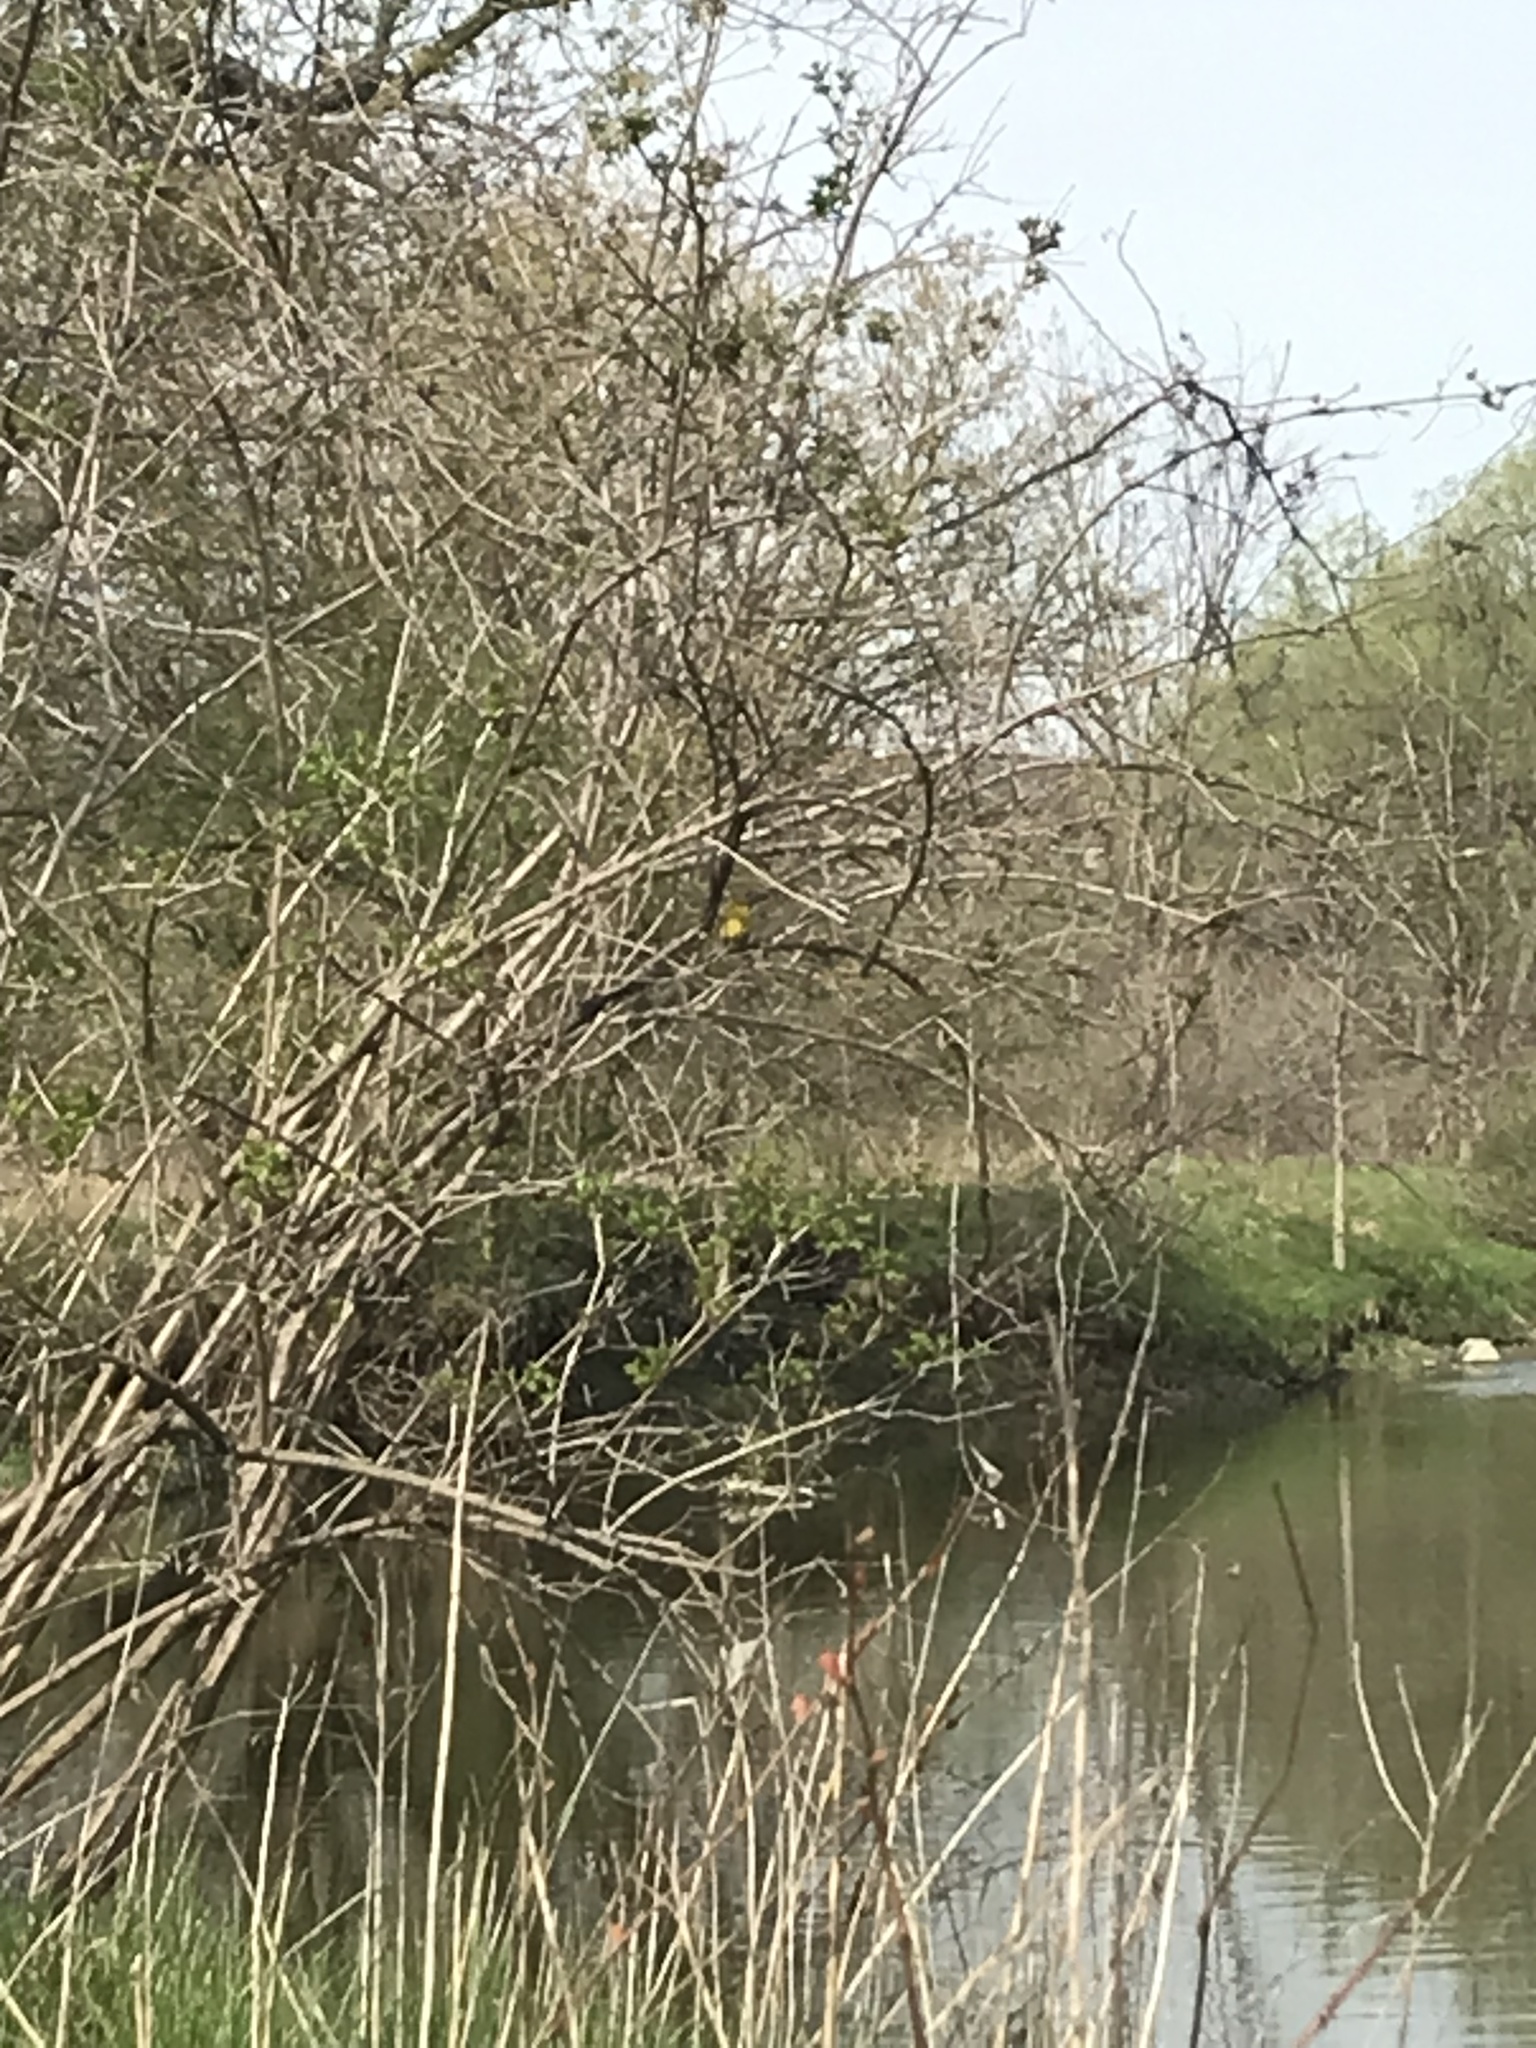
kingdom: Animalia
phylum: Chordata
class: Aves
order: Passeriformes
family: Parulidae
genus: Setophaga
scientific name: Setophaga petechia
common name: Yellow warbler
